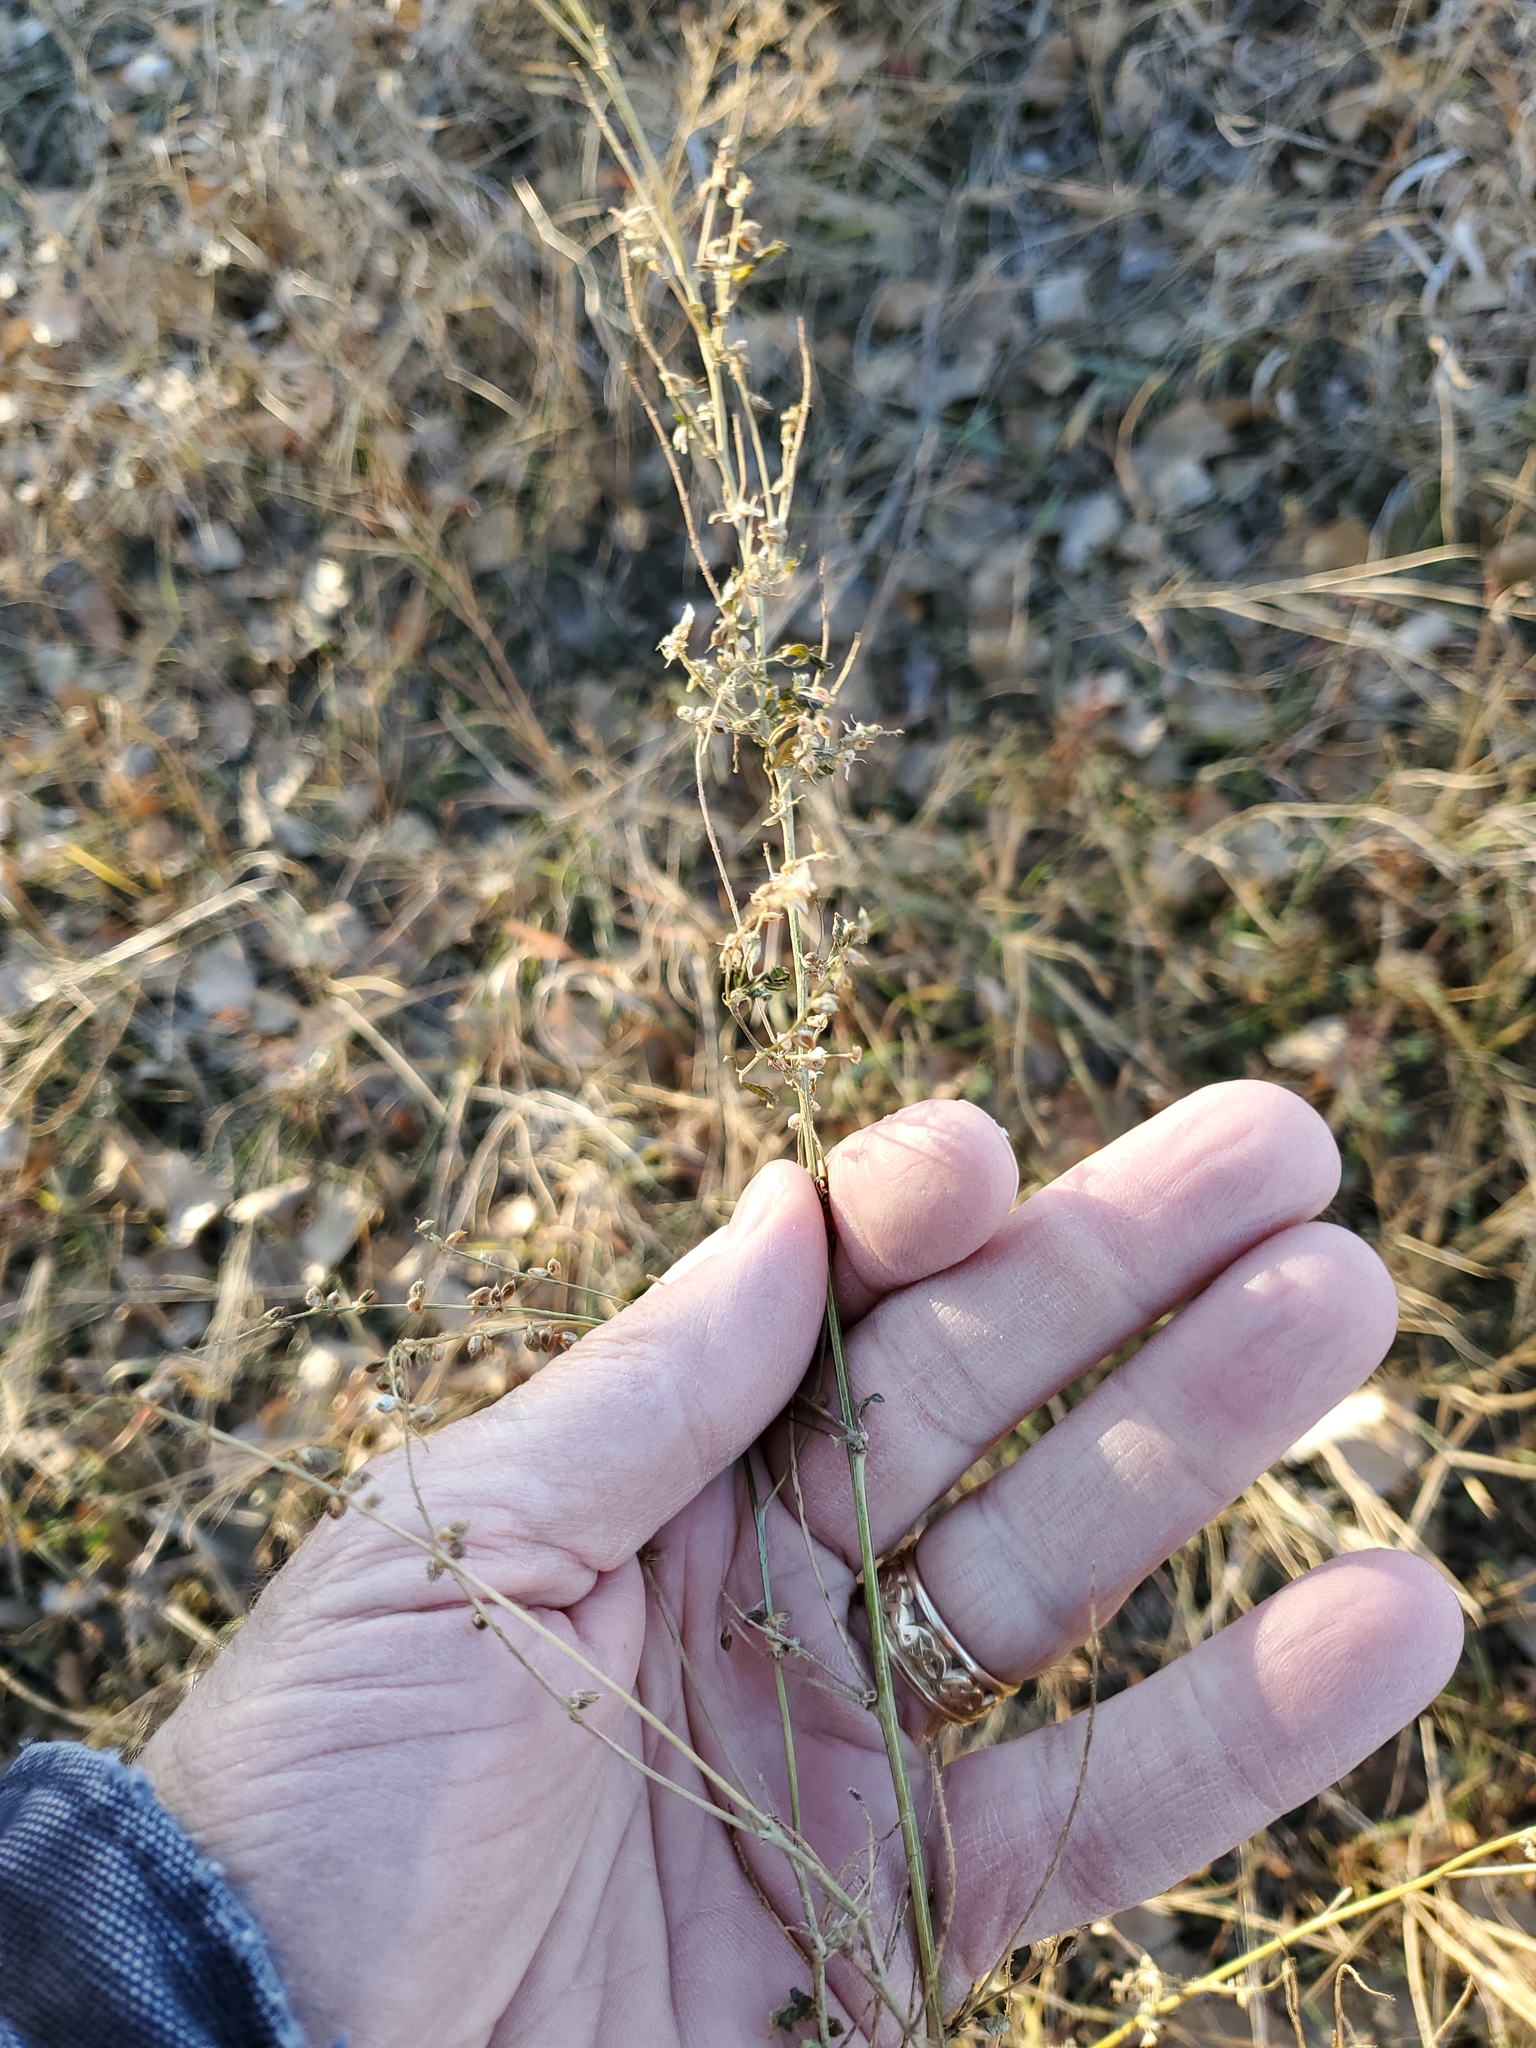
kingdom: Plantae
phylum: Tracheophyta
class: Magnoliopsida
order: Fabales
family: Fabaceae
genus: Melilotus
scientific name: Melilotus officinalis
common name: Sweetclover
